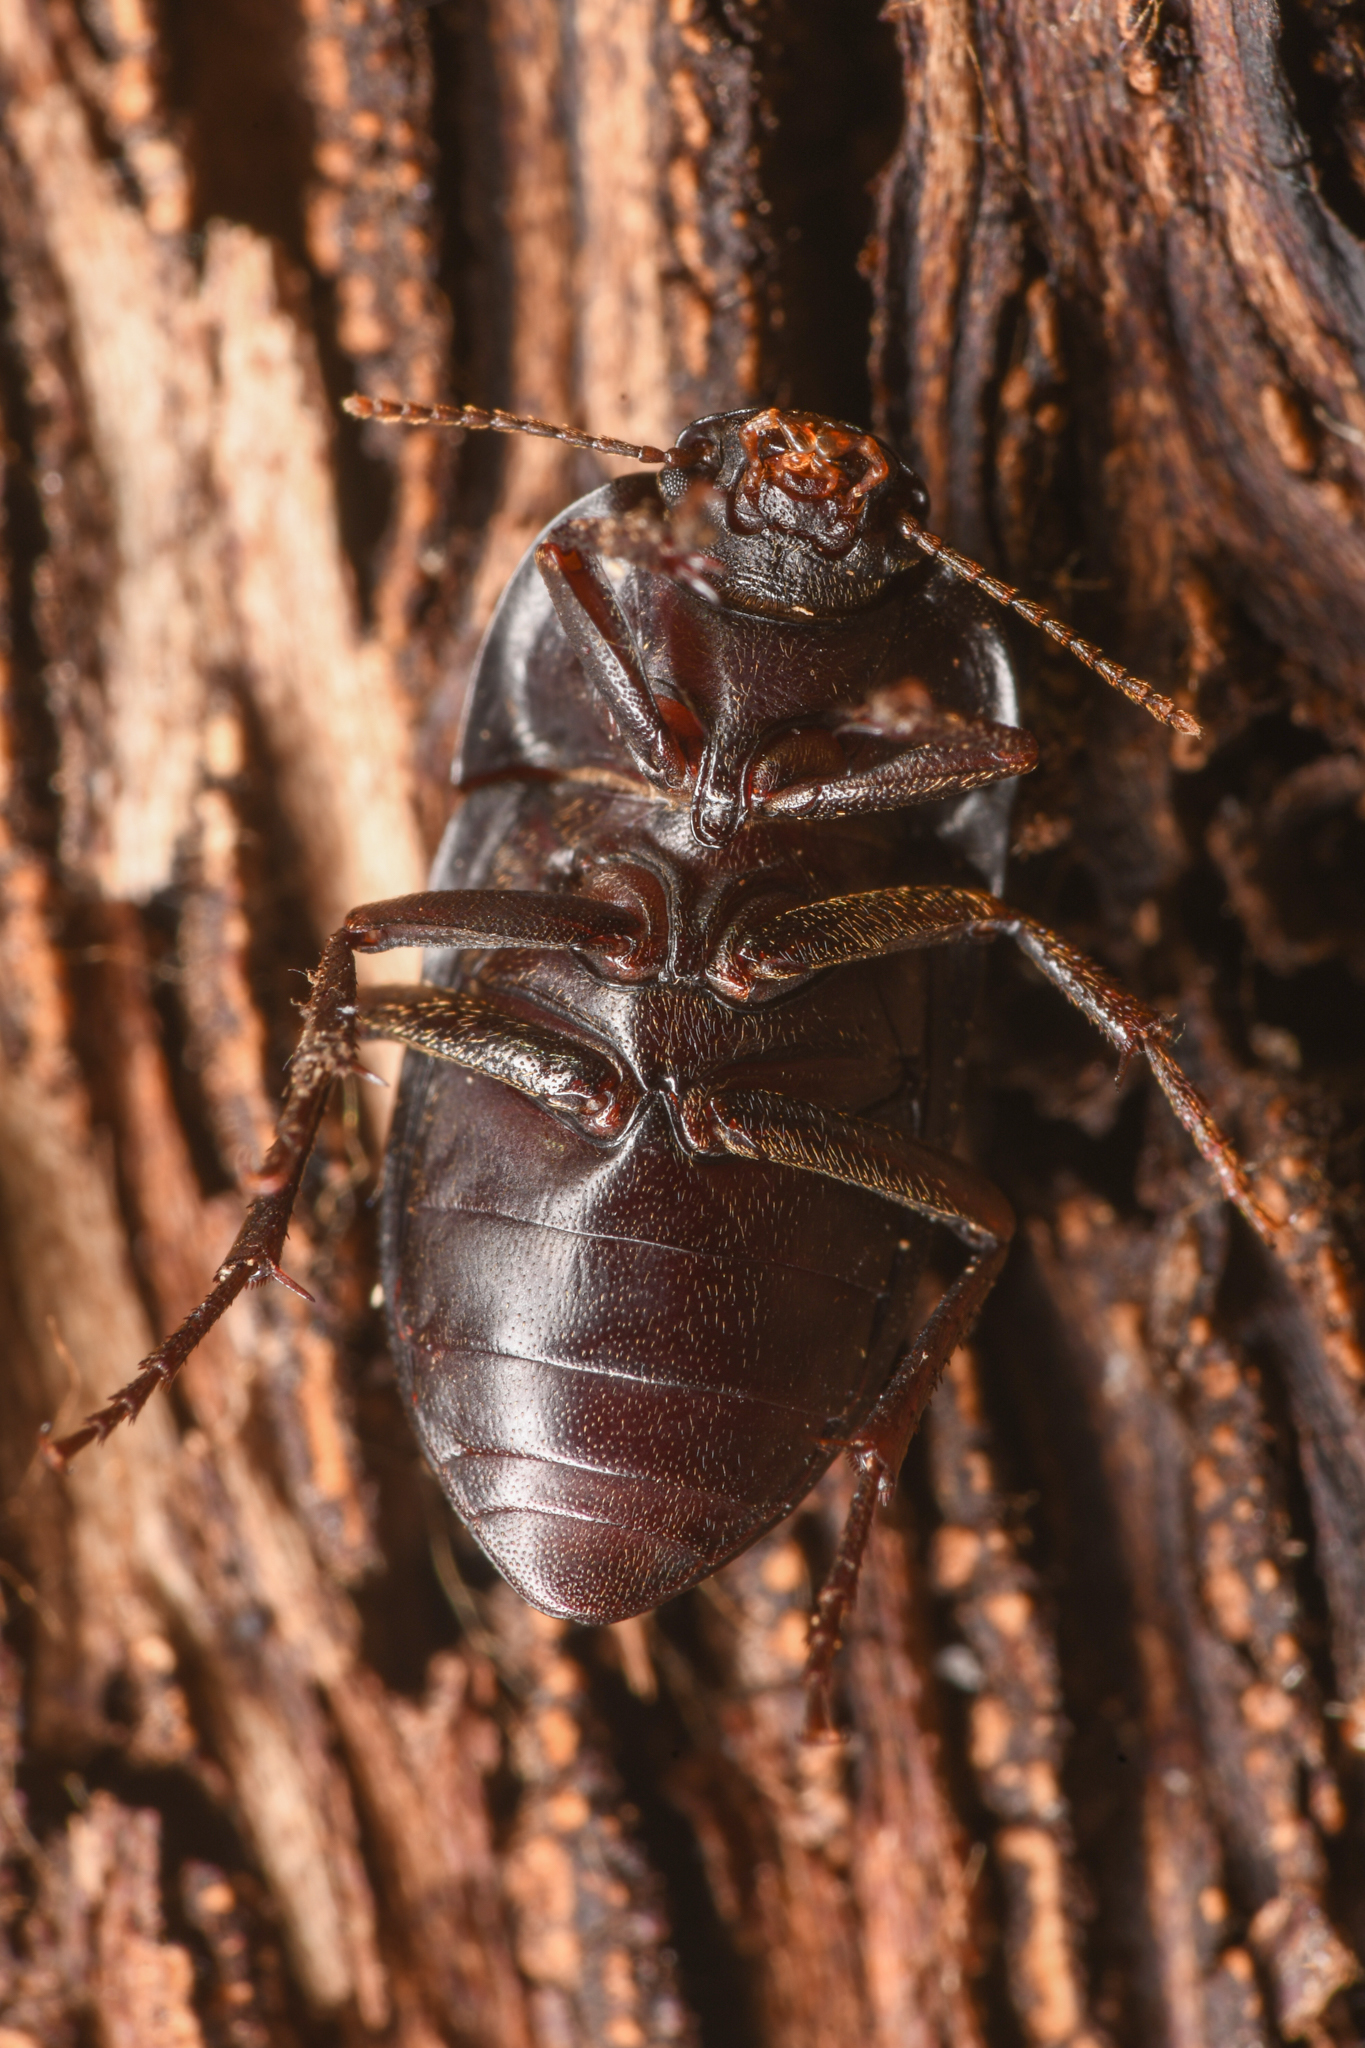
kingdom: Animalia
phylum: Arthropoda
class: Insecta
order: Coleoptera
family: Tenebrionidae
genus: Coniontis
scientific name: Coniontis
